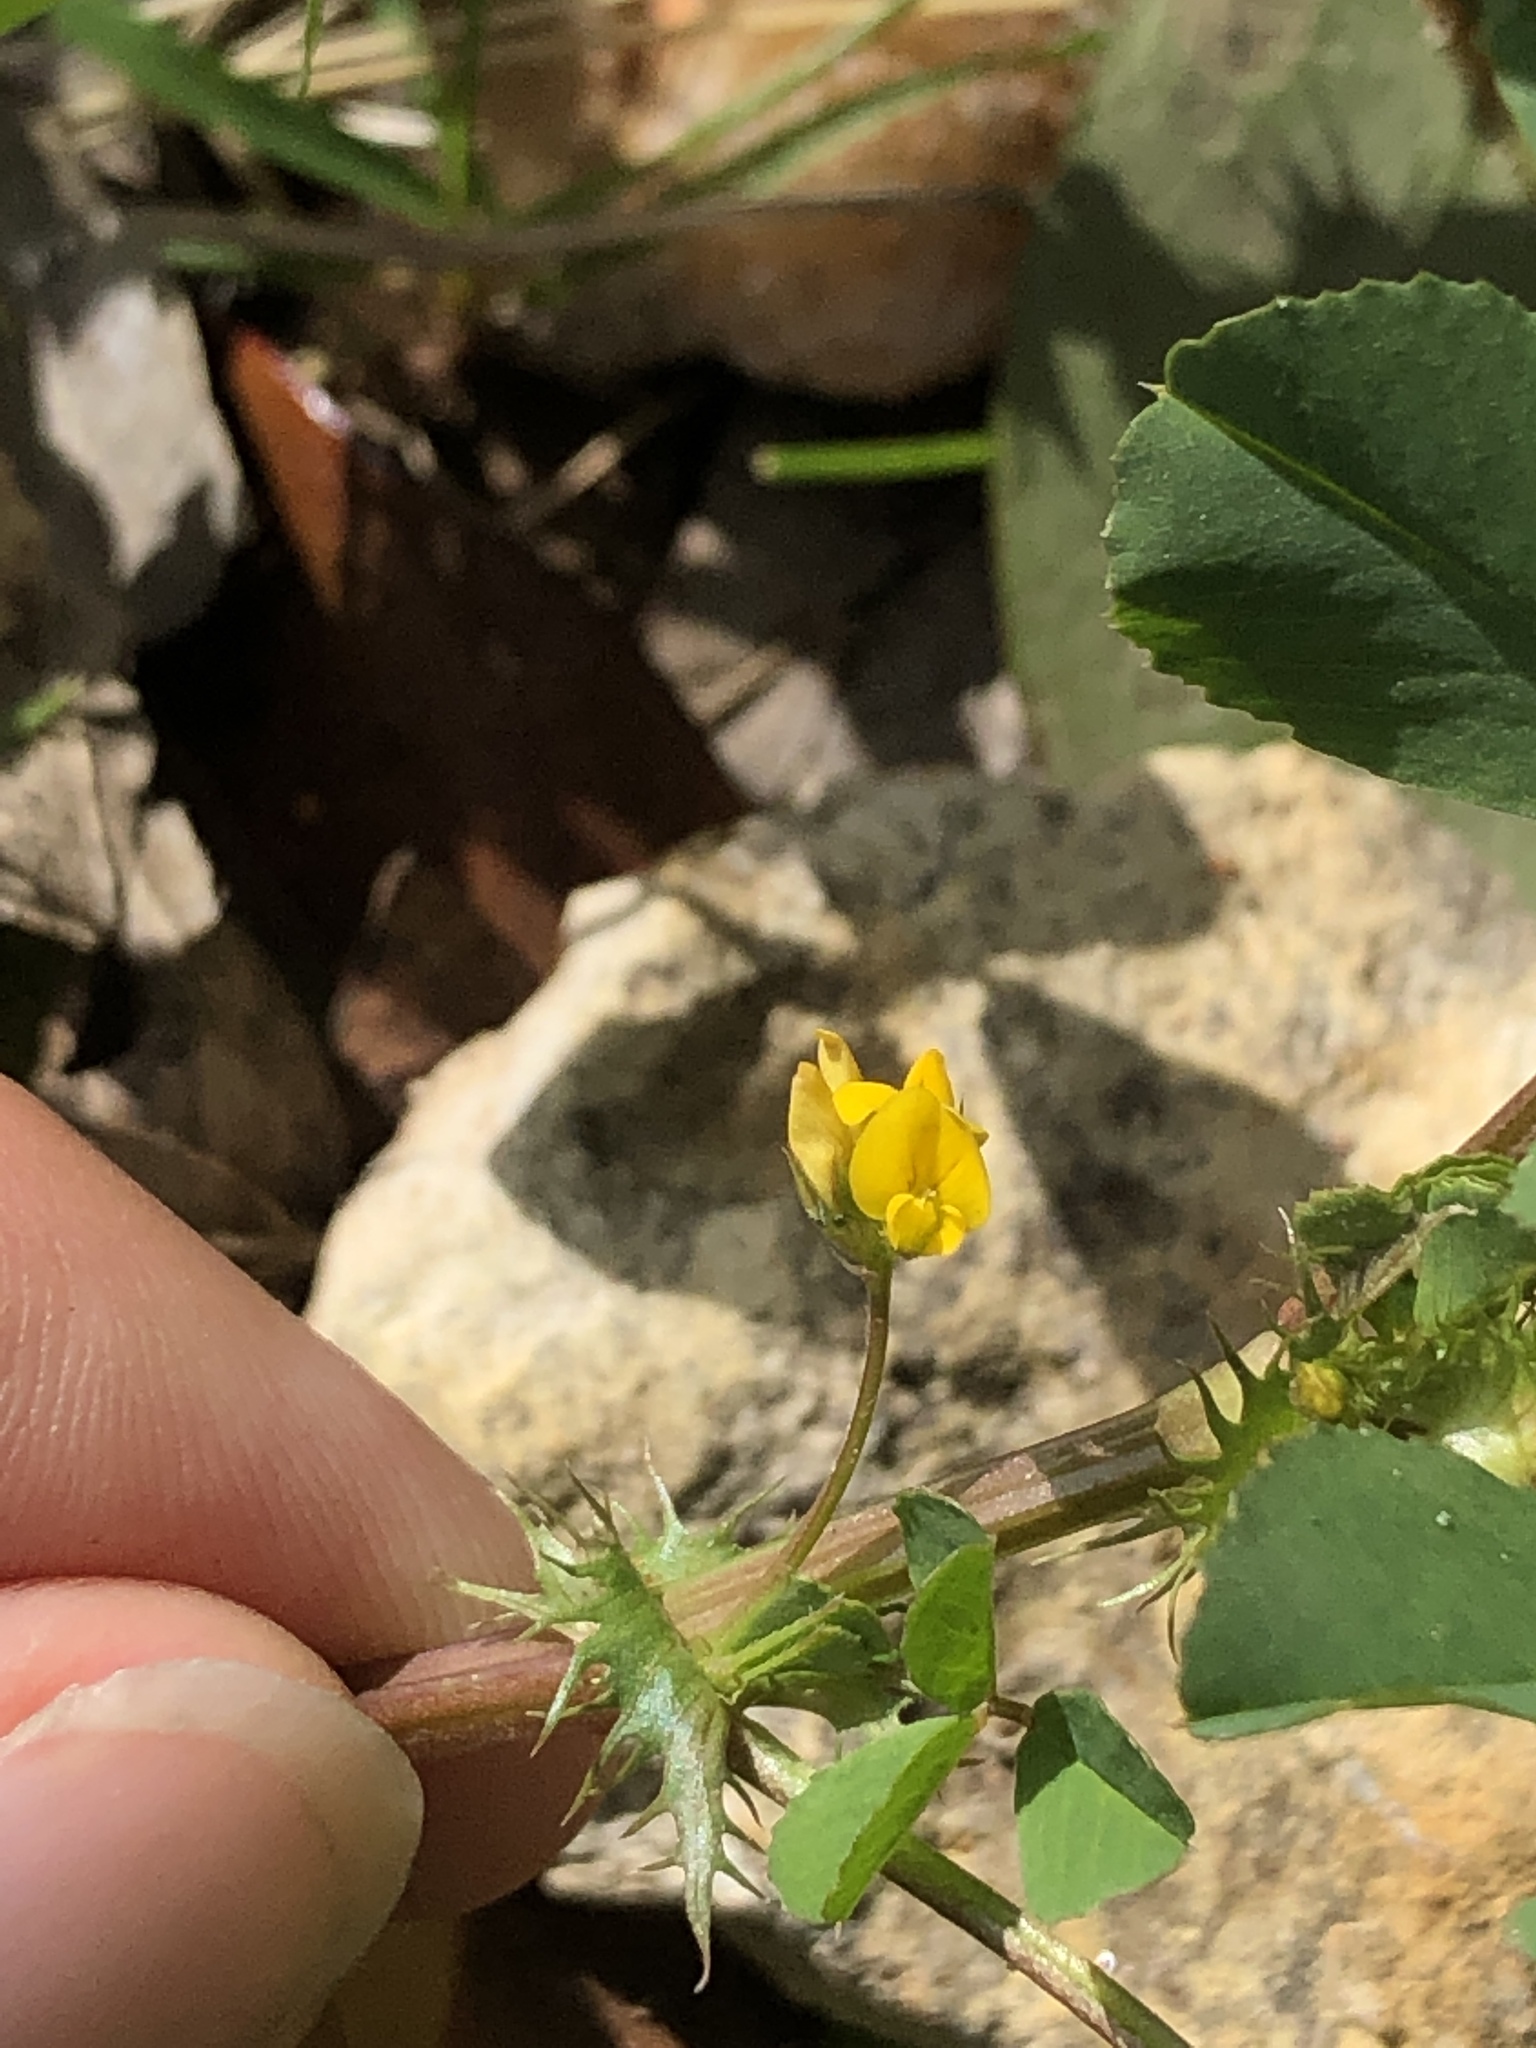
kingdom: Plantae
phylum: Tracheophyta
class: Magnoliopsida
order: Fabales
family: Fabaceae
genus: Medicago
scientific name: Medicago polymorpha
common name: Burclover
